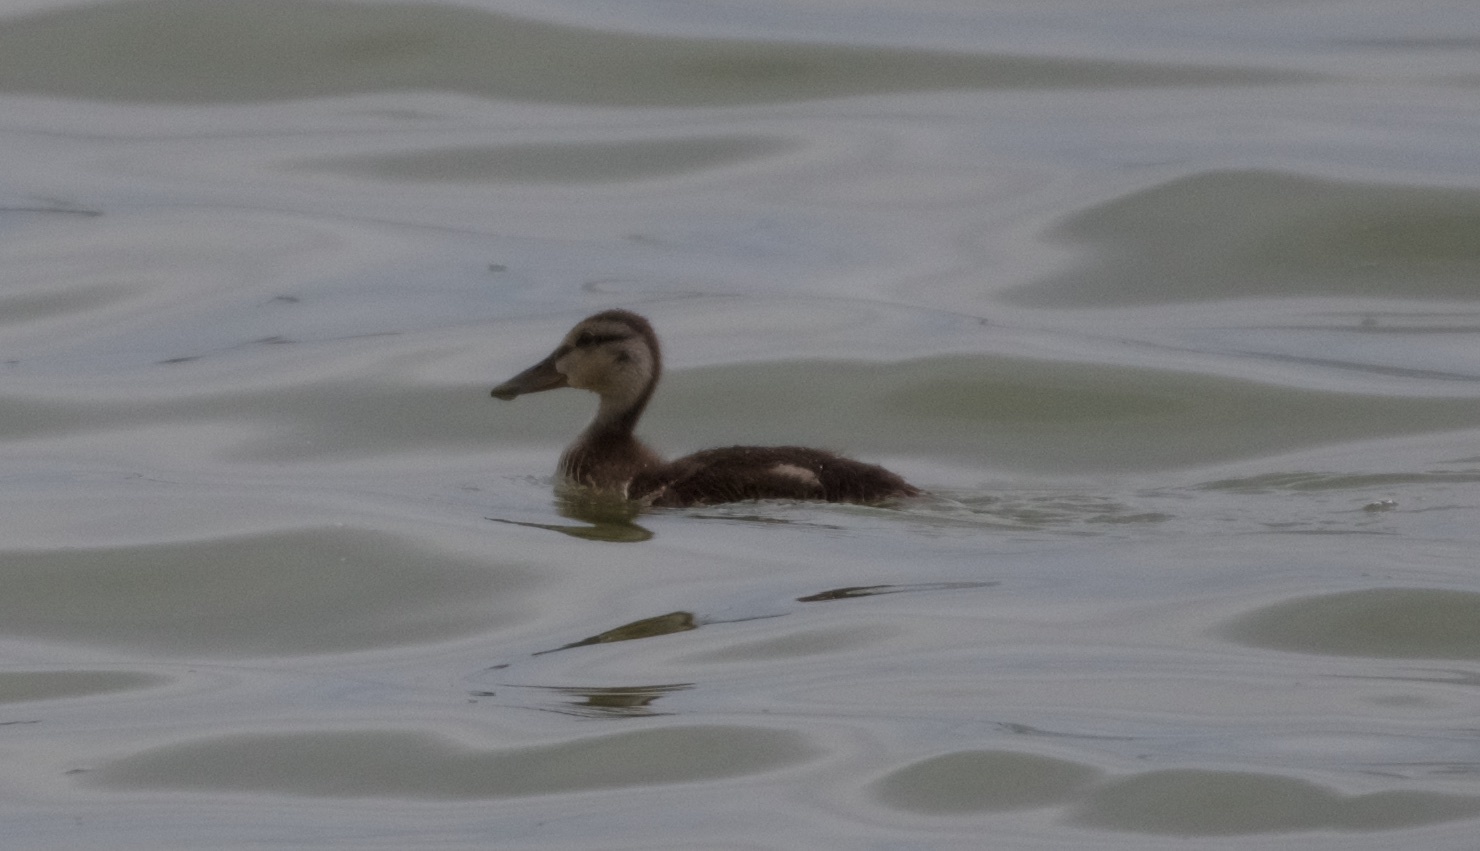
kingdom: Animalia
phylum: Chordata
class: Aves
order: Anseriformes
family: Anatidae
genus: Anas
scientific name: Anas platyrhynchos
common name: Mallard
